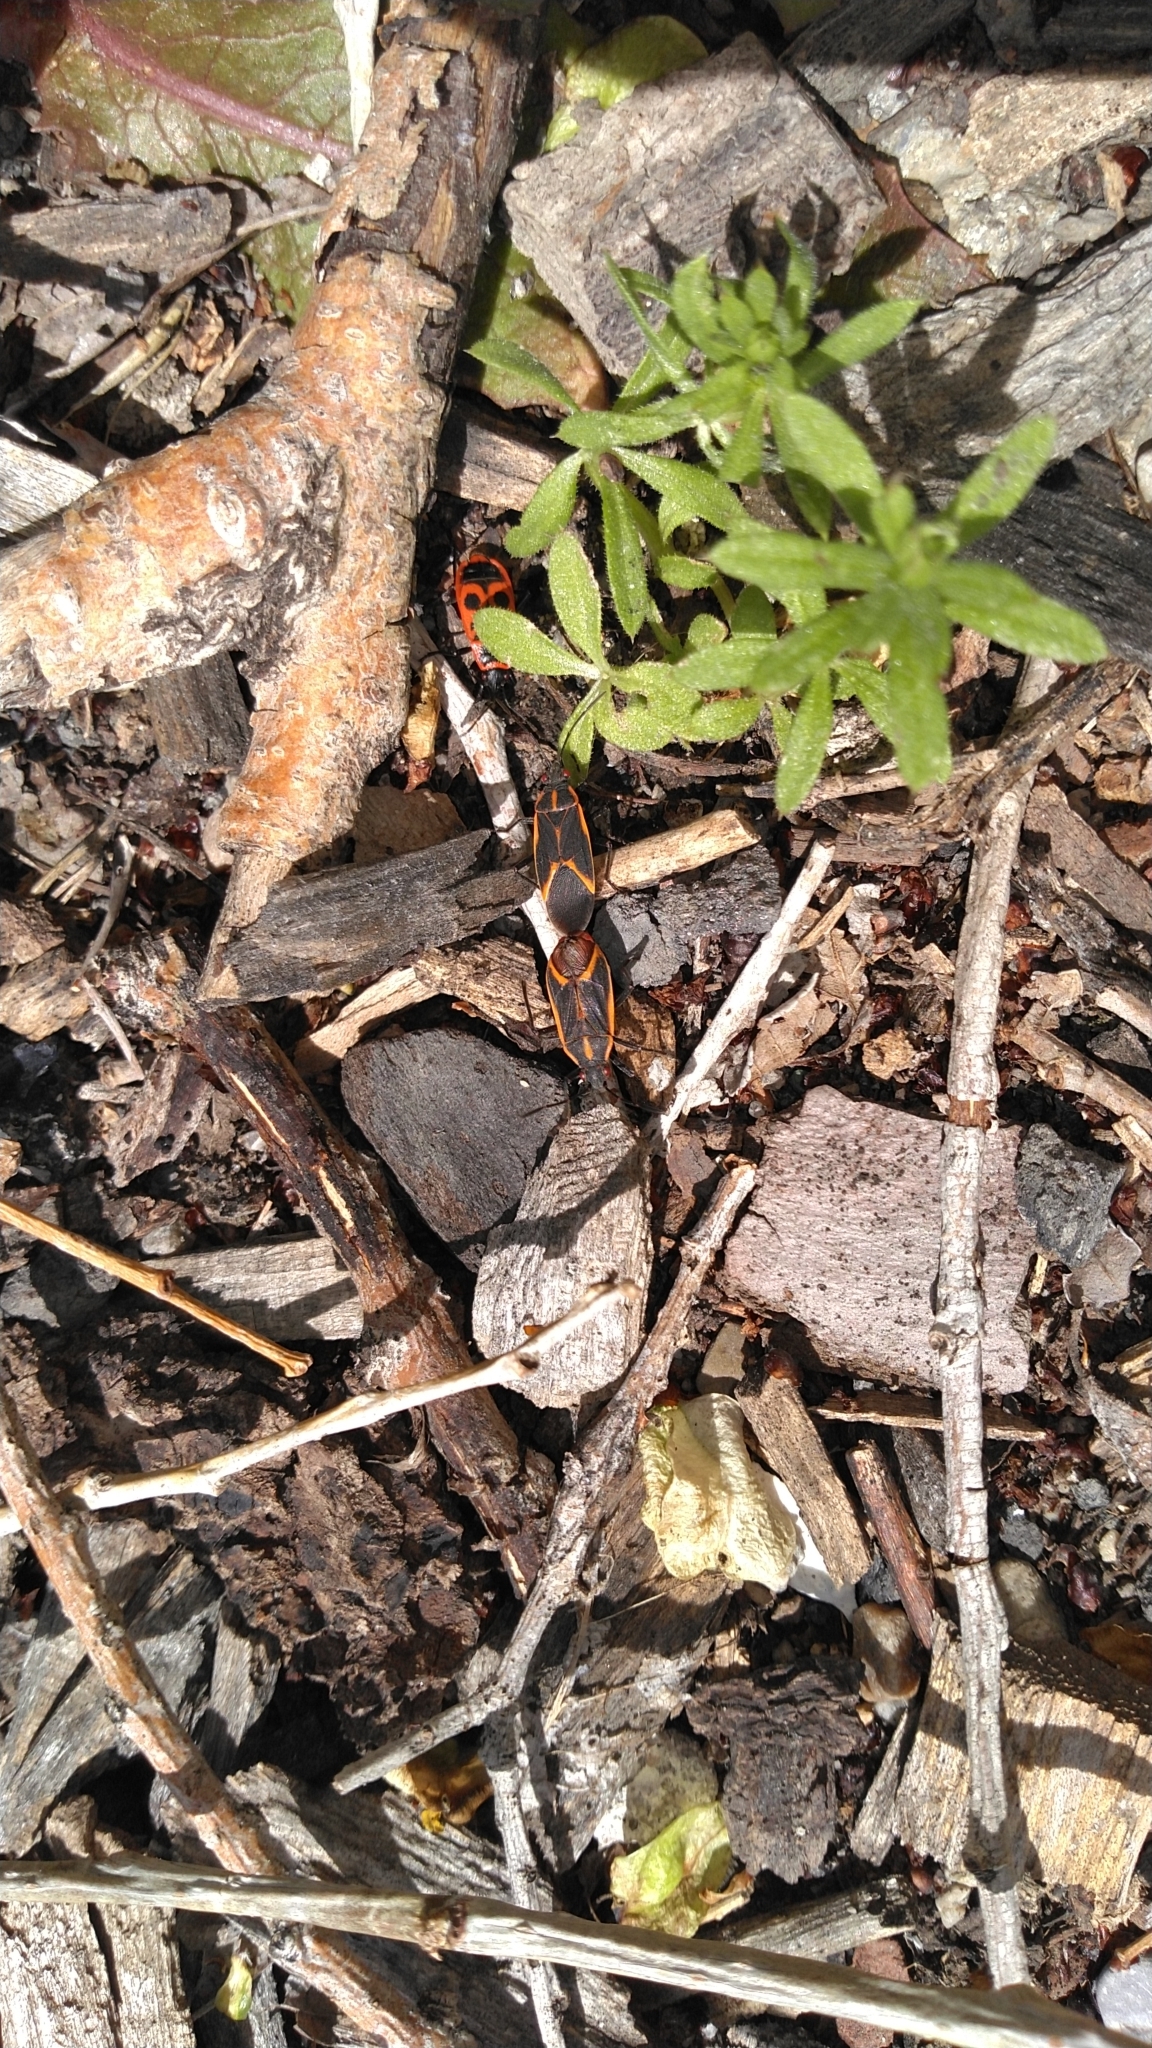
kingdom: Animalia
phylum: Arthropoda
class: Insecta
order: Hemiptera
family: Rhopalidae
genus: Boisea
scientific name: Boisea trivittata
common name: Boxelder bug
